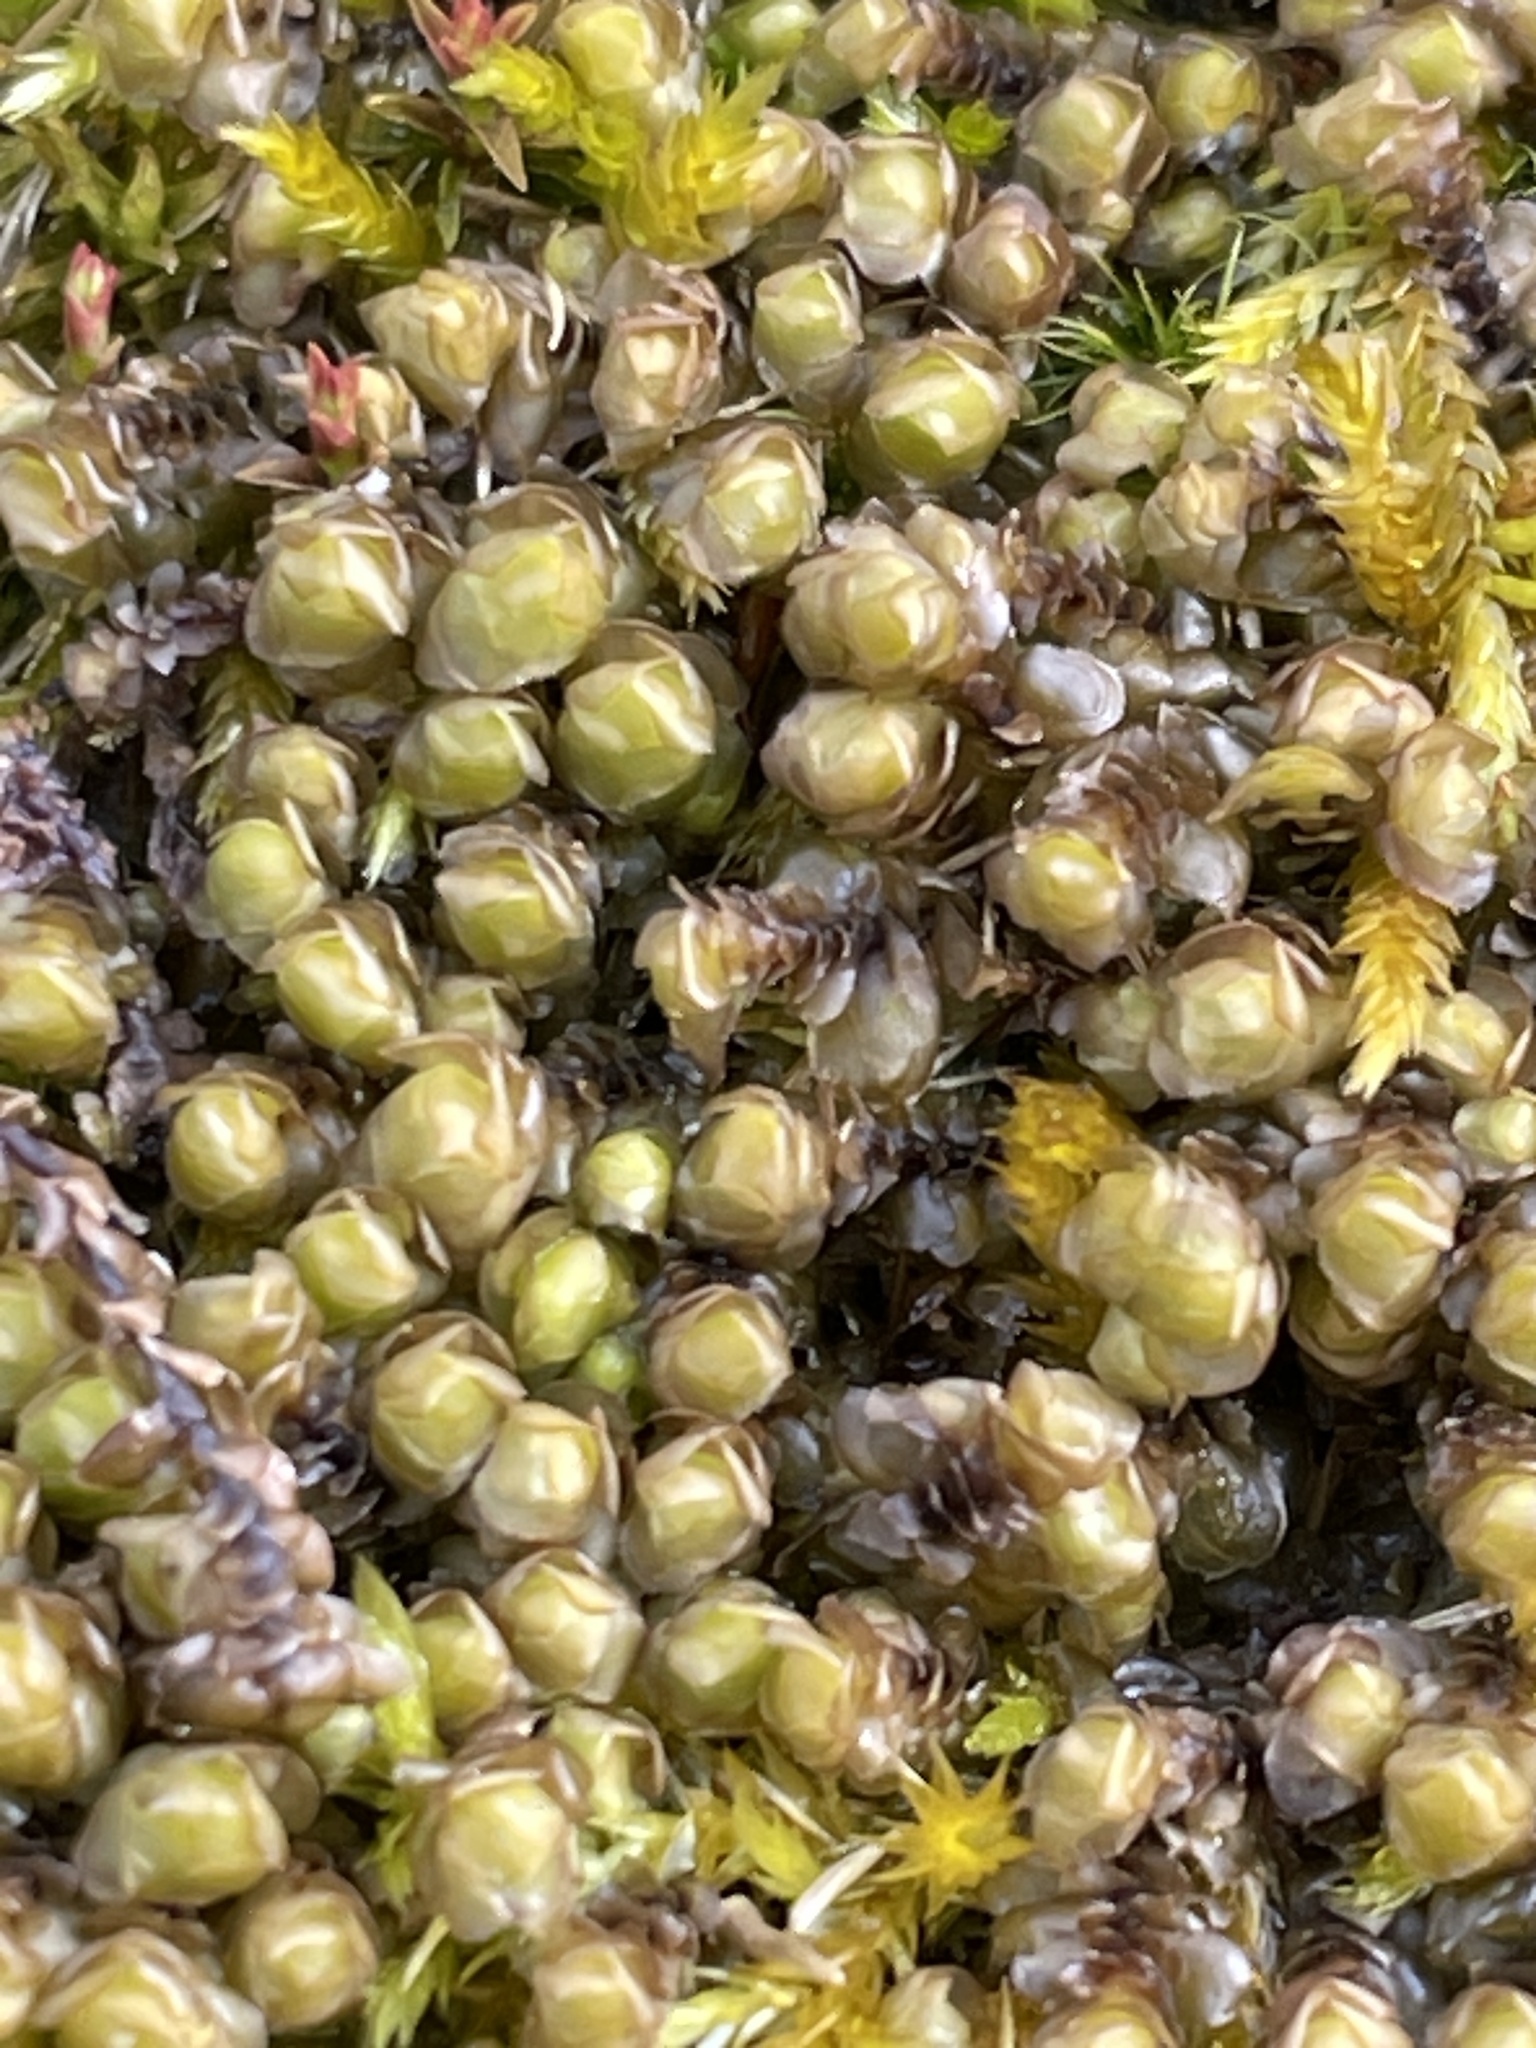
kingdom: Plantae
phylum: Marchantiophyta
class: Jungermanniopsida
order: Jungermanniales
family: Scapaniaceae
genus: Scapania
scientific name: Scapania nemorea
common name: Grove earwort
